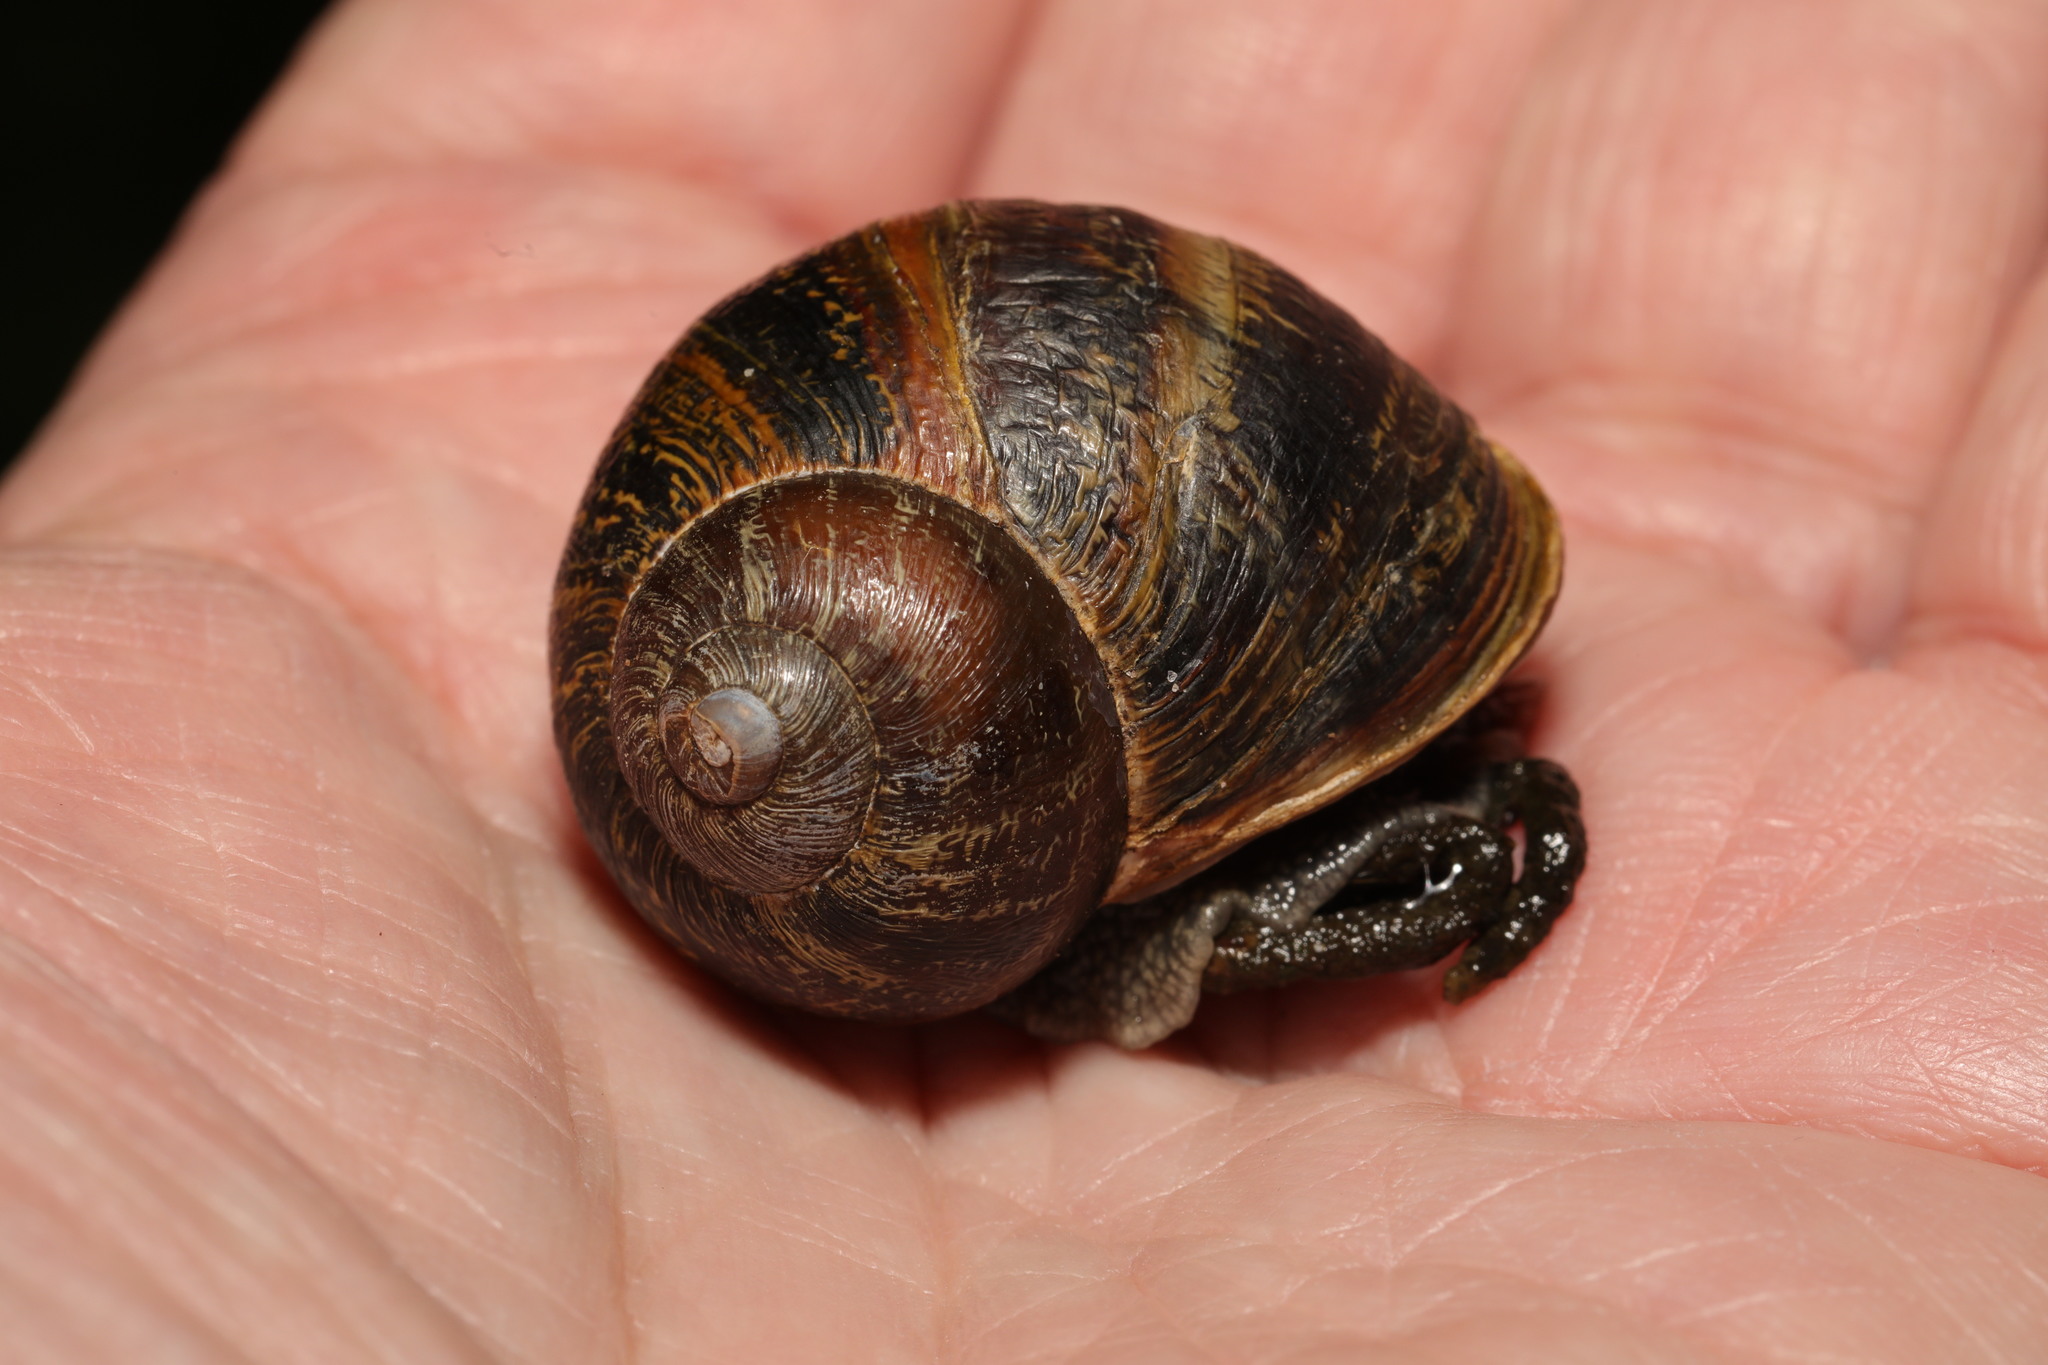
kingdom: Animalia
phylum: Mollusca
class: Gastropoda
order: Stylommatophora
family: Helicidae
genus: Cornu
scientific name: Cornu aspersum
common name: Brown garden snail
